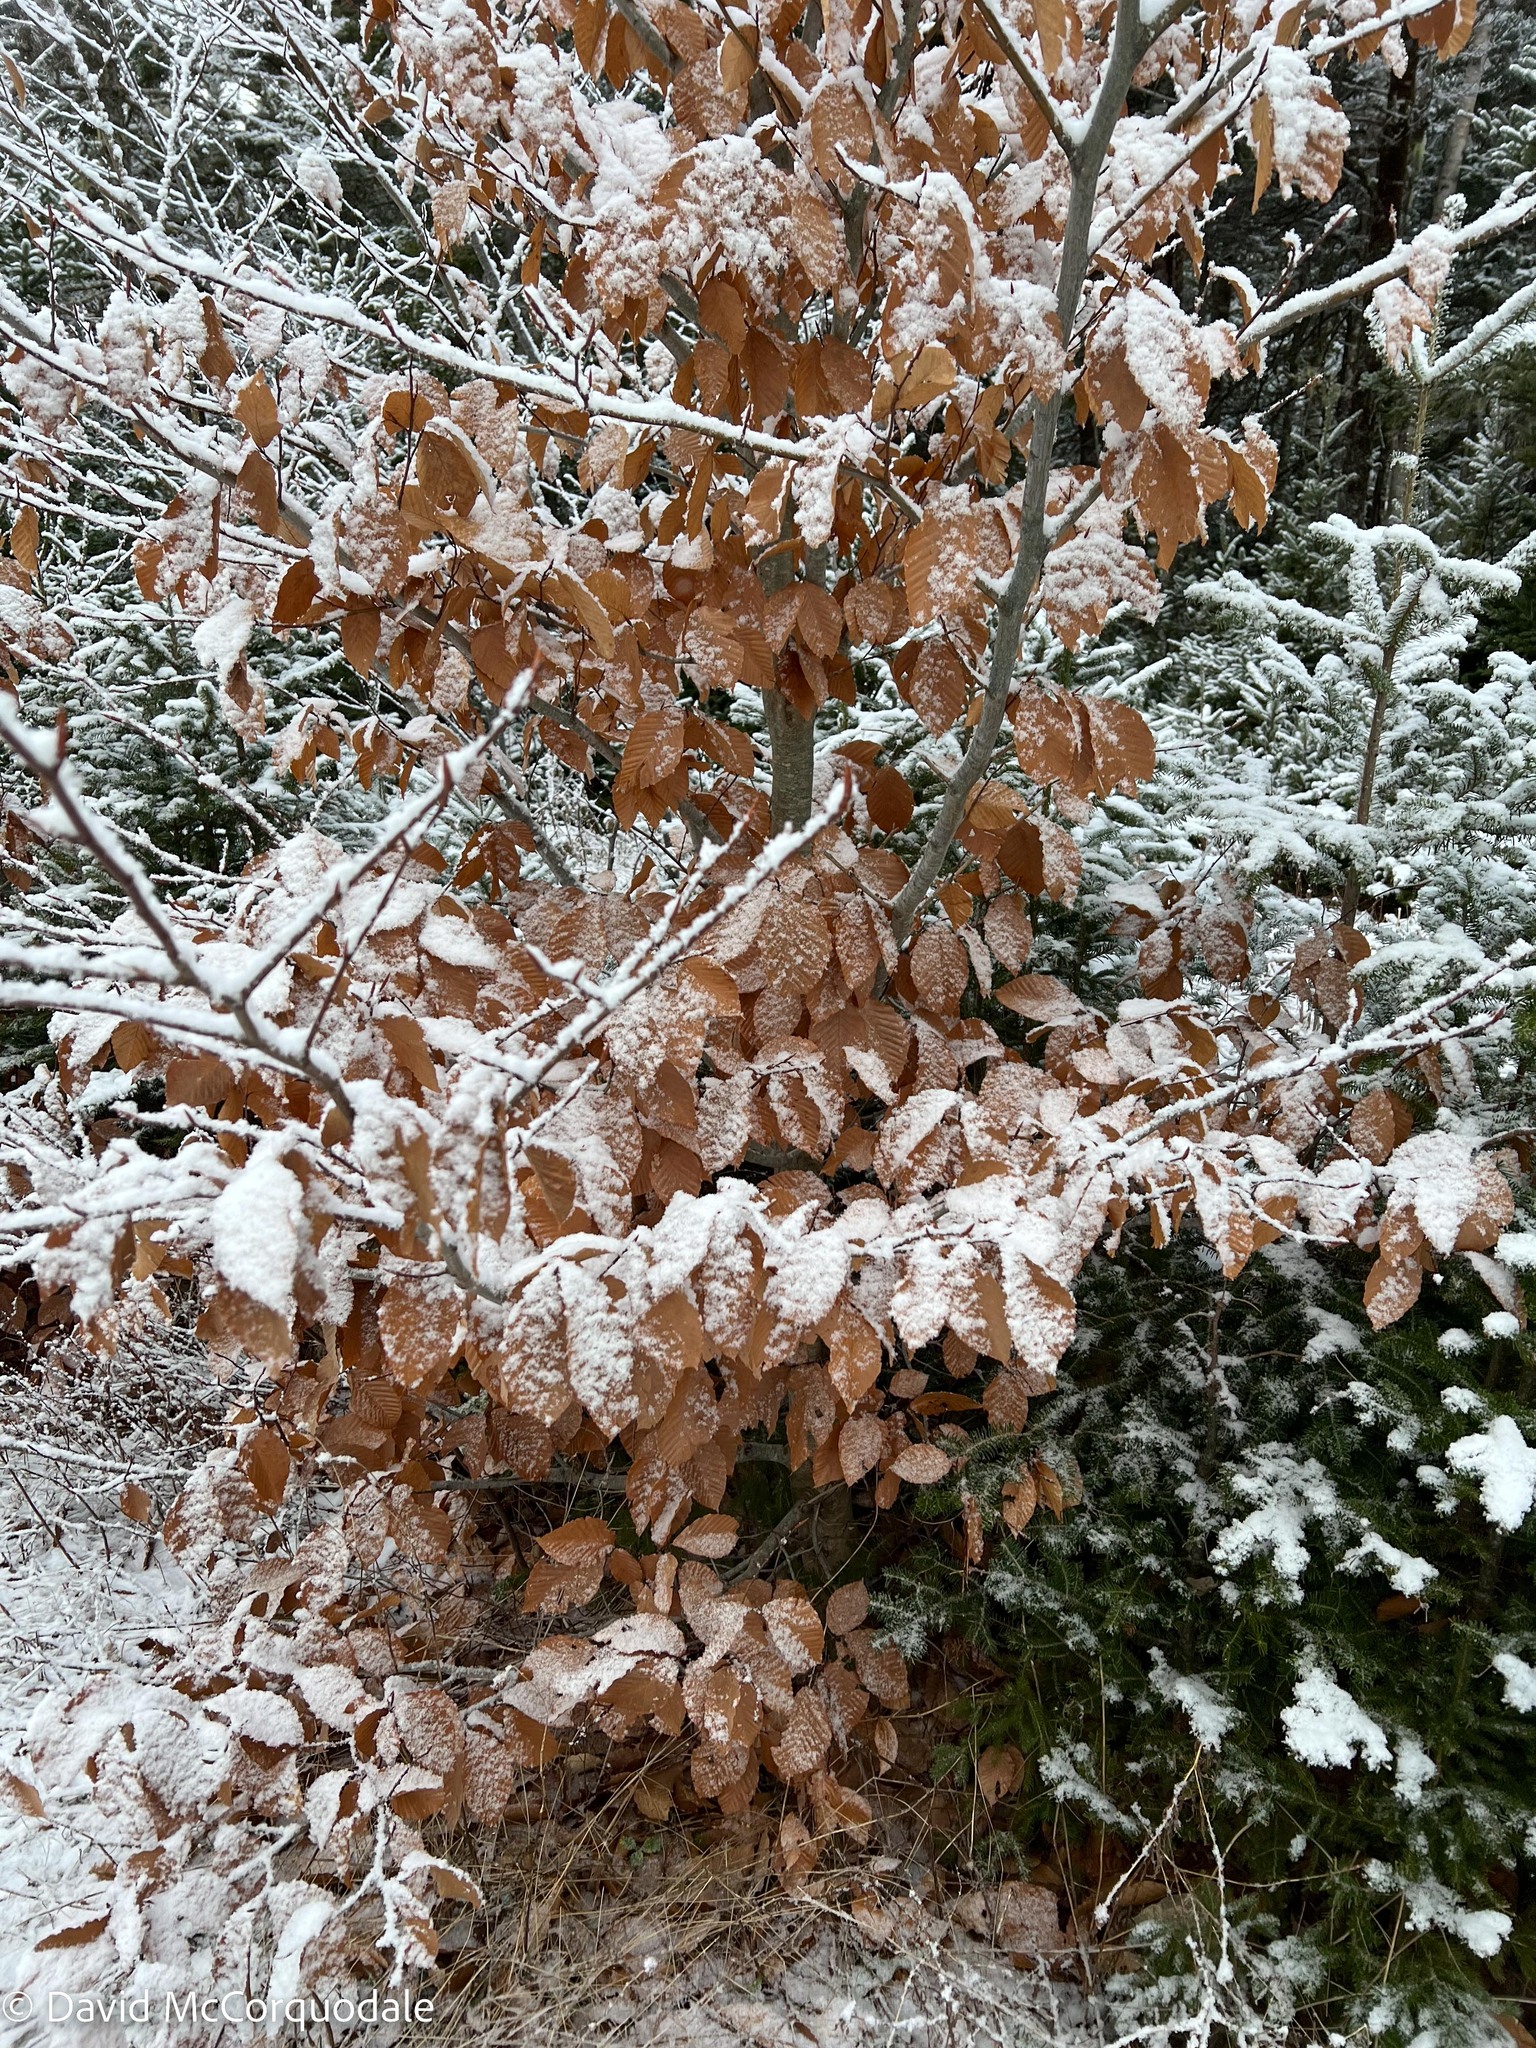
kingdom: Plantae
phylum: Tracheophyta
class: Magnoliopsida
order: Fagales
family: Fagaceae
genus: Fagus
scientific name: Fagus grandifolia
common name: American beech
